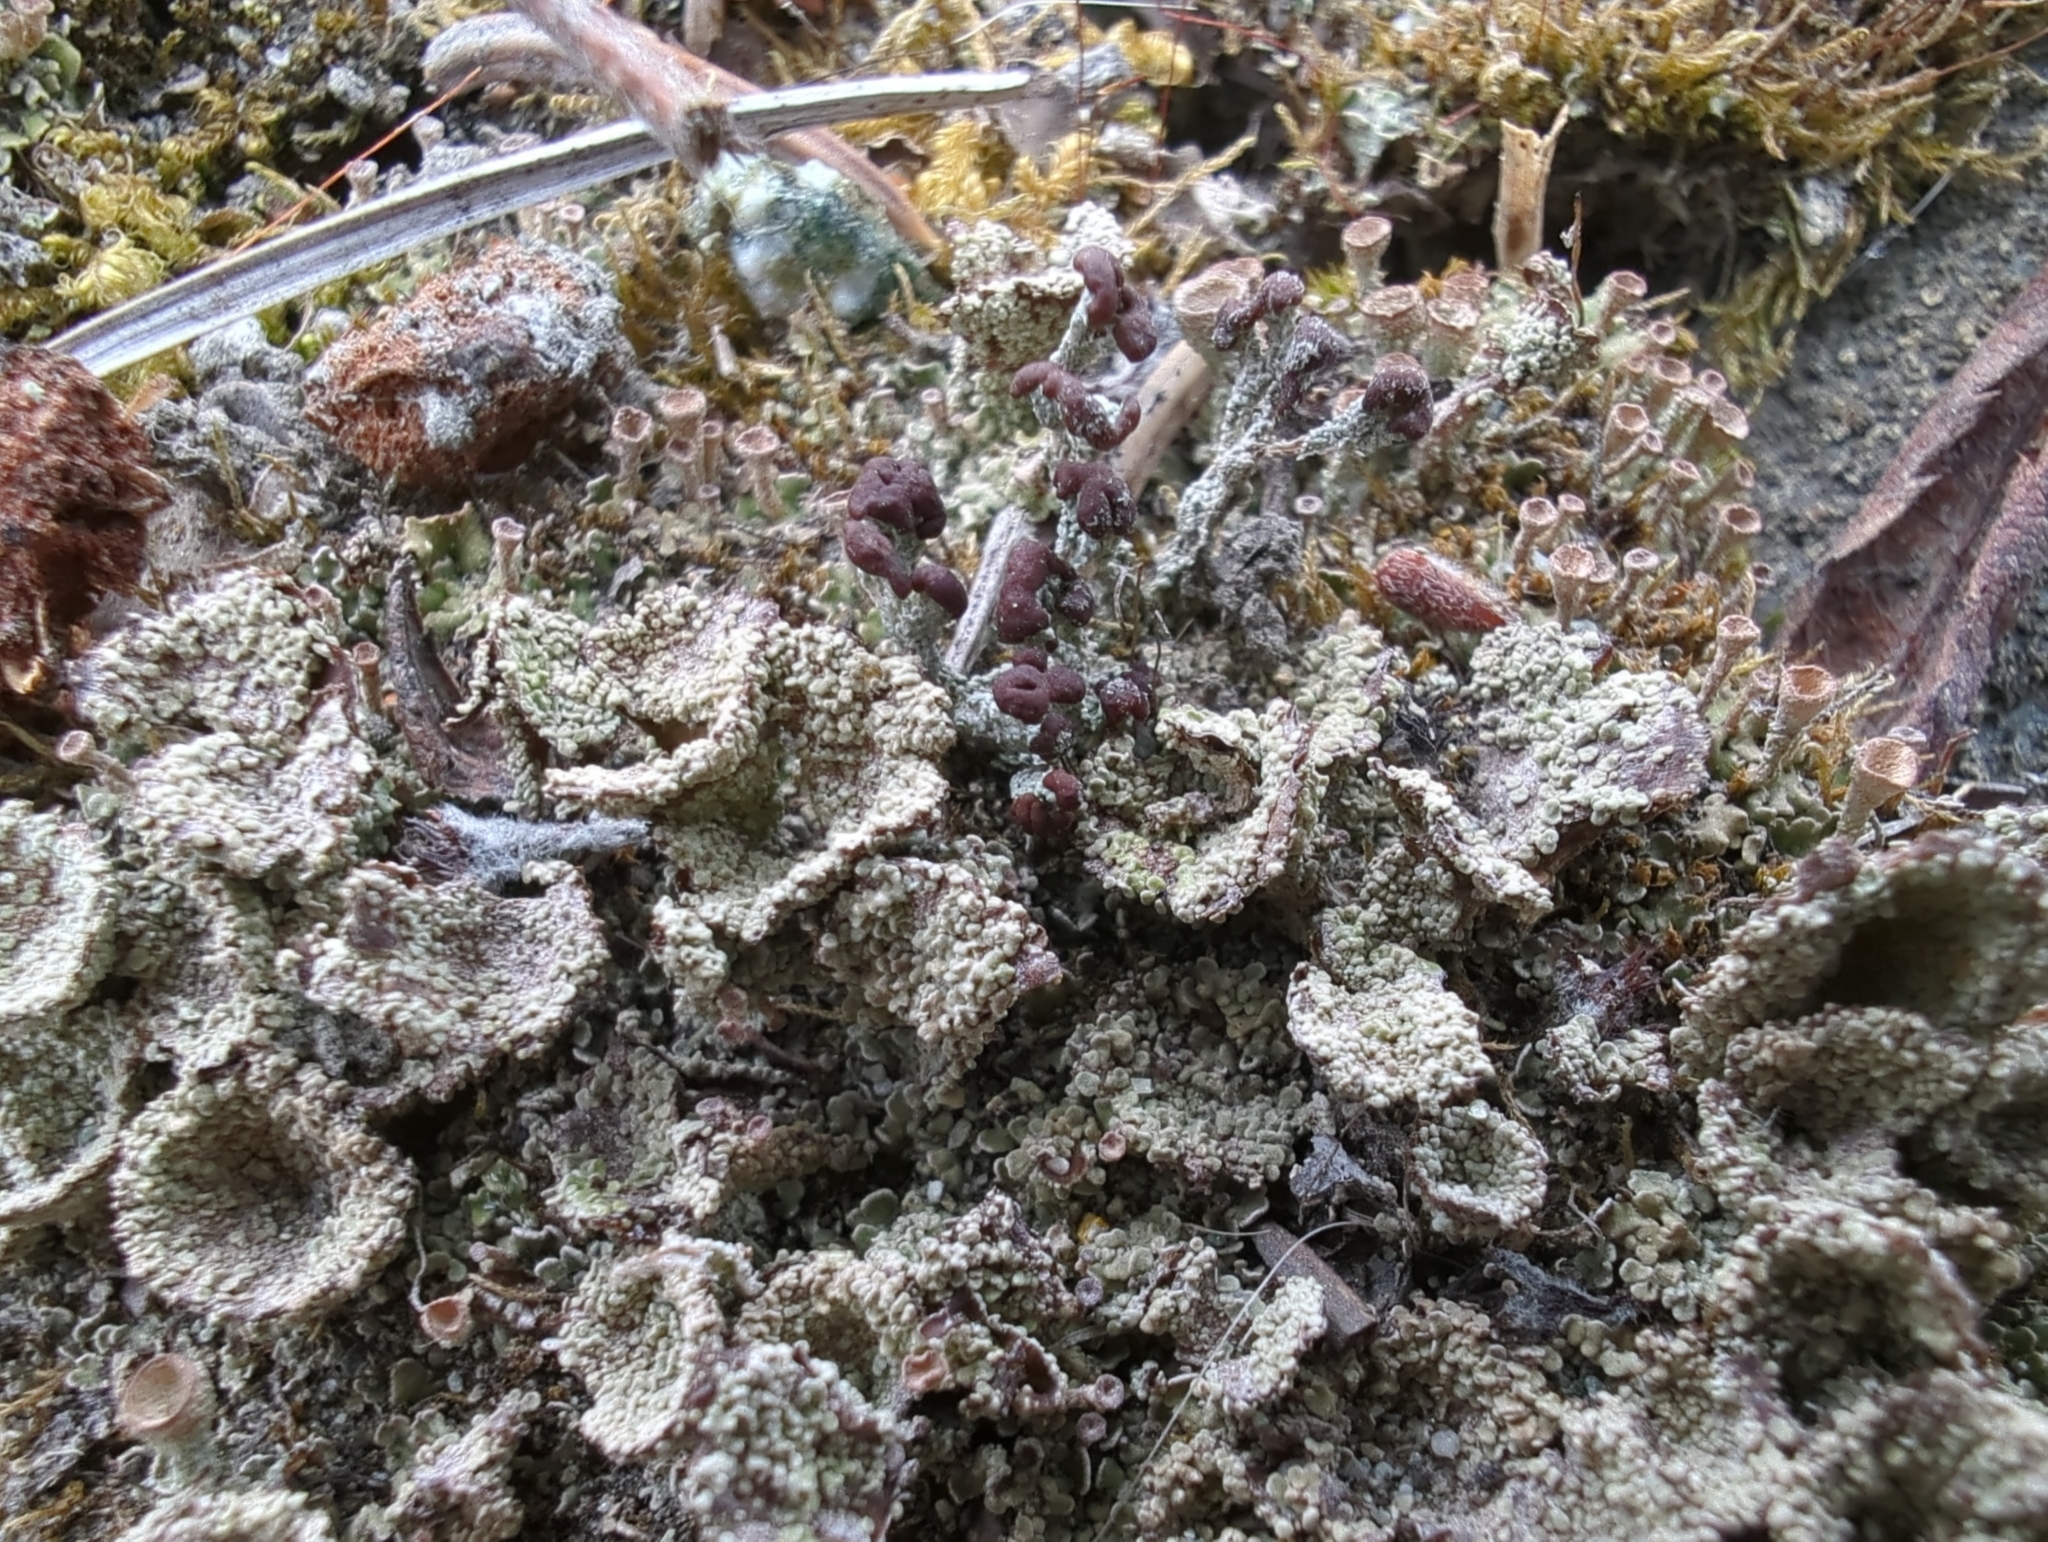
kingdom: Fungi
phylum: Ascomycota
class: Lecanoromycetes
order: Lecanorales
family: Cladoniaceae
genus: Cladonia
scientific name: Cladonia pyxidata
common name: Pebbled pixie cup
